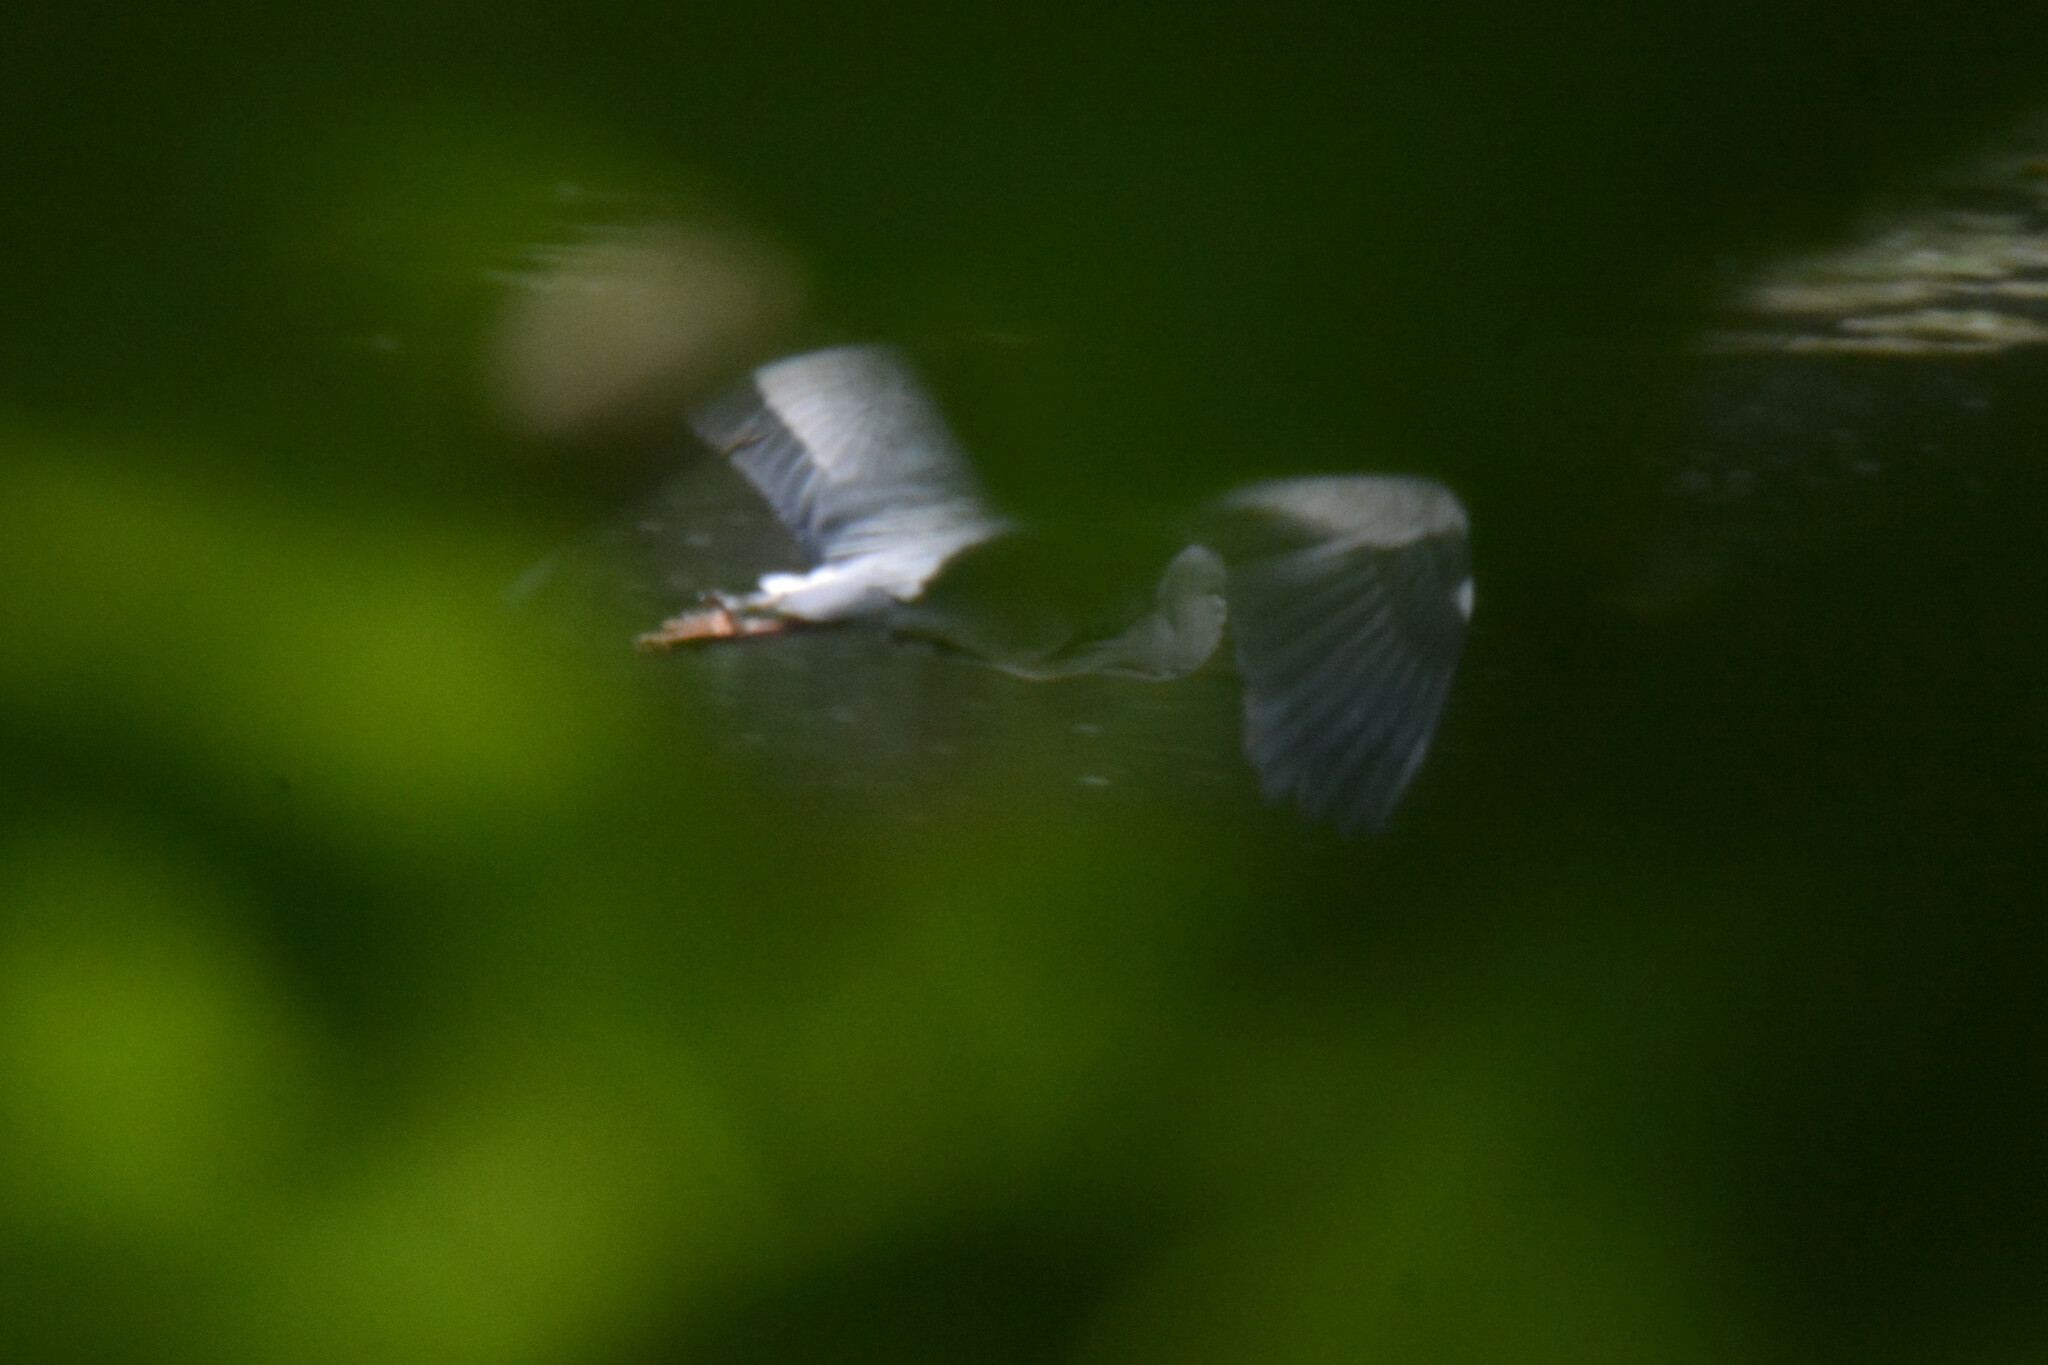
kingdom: Animalia
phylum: Chordata
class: Aves
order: Pelecaniformes
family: Ardeidae
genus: Ardea
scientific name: Ardea cinerea
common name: Grey heron
